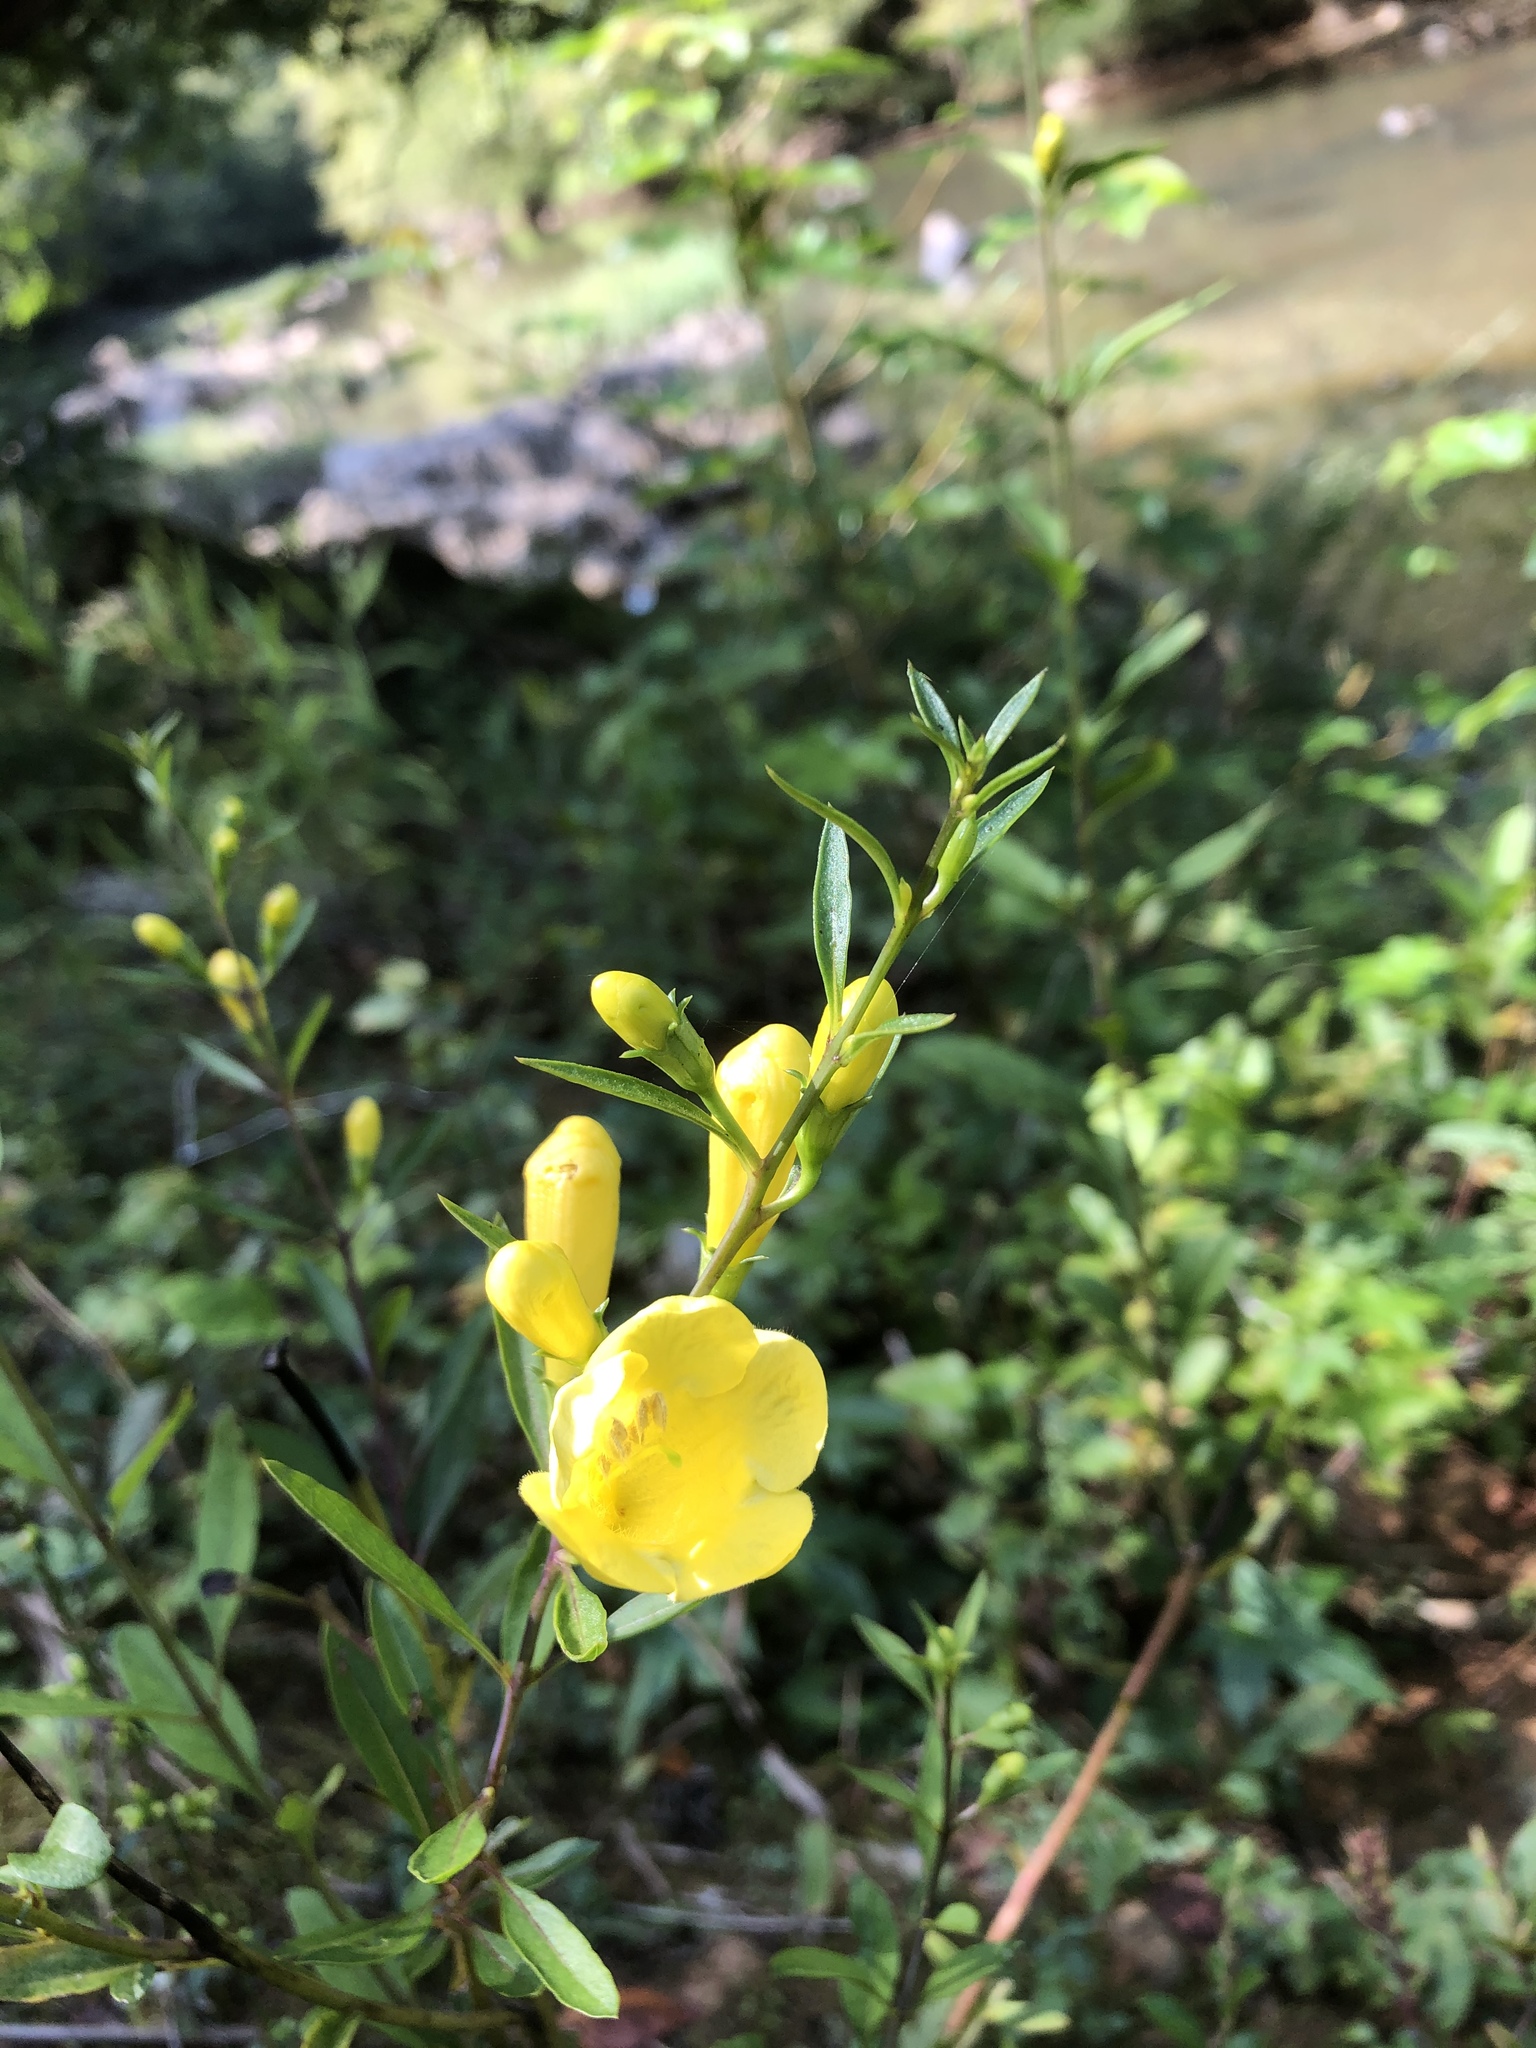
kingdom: Plantae
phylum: Tracheophyta
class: Magnoliopsida
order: Lamiales
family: Orobanchaceae
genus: Aureolaria
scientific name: Aureolaria flava
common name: Smooth false foxglove
